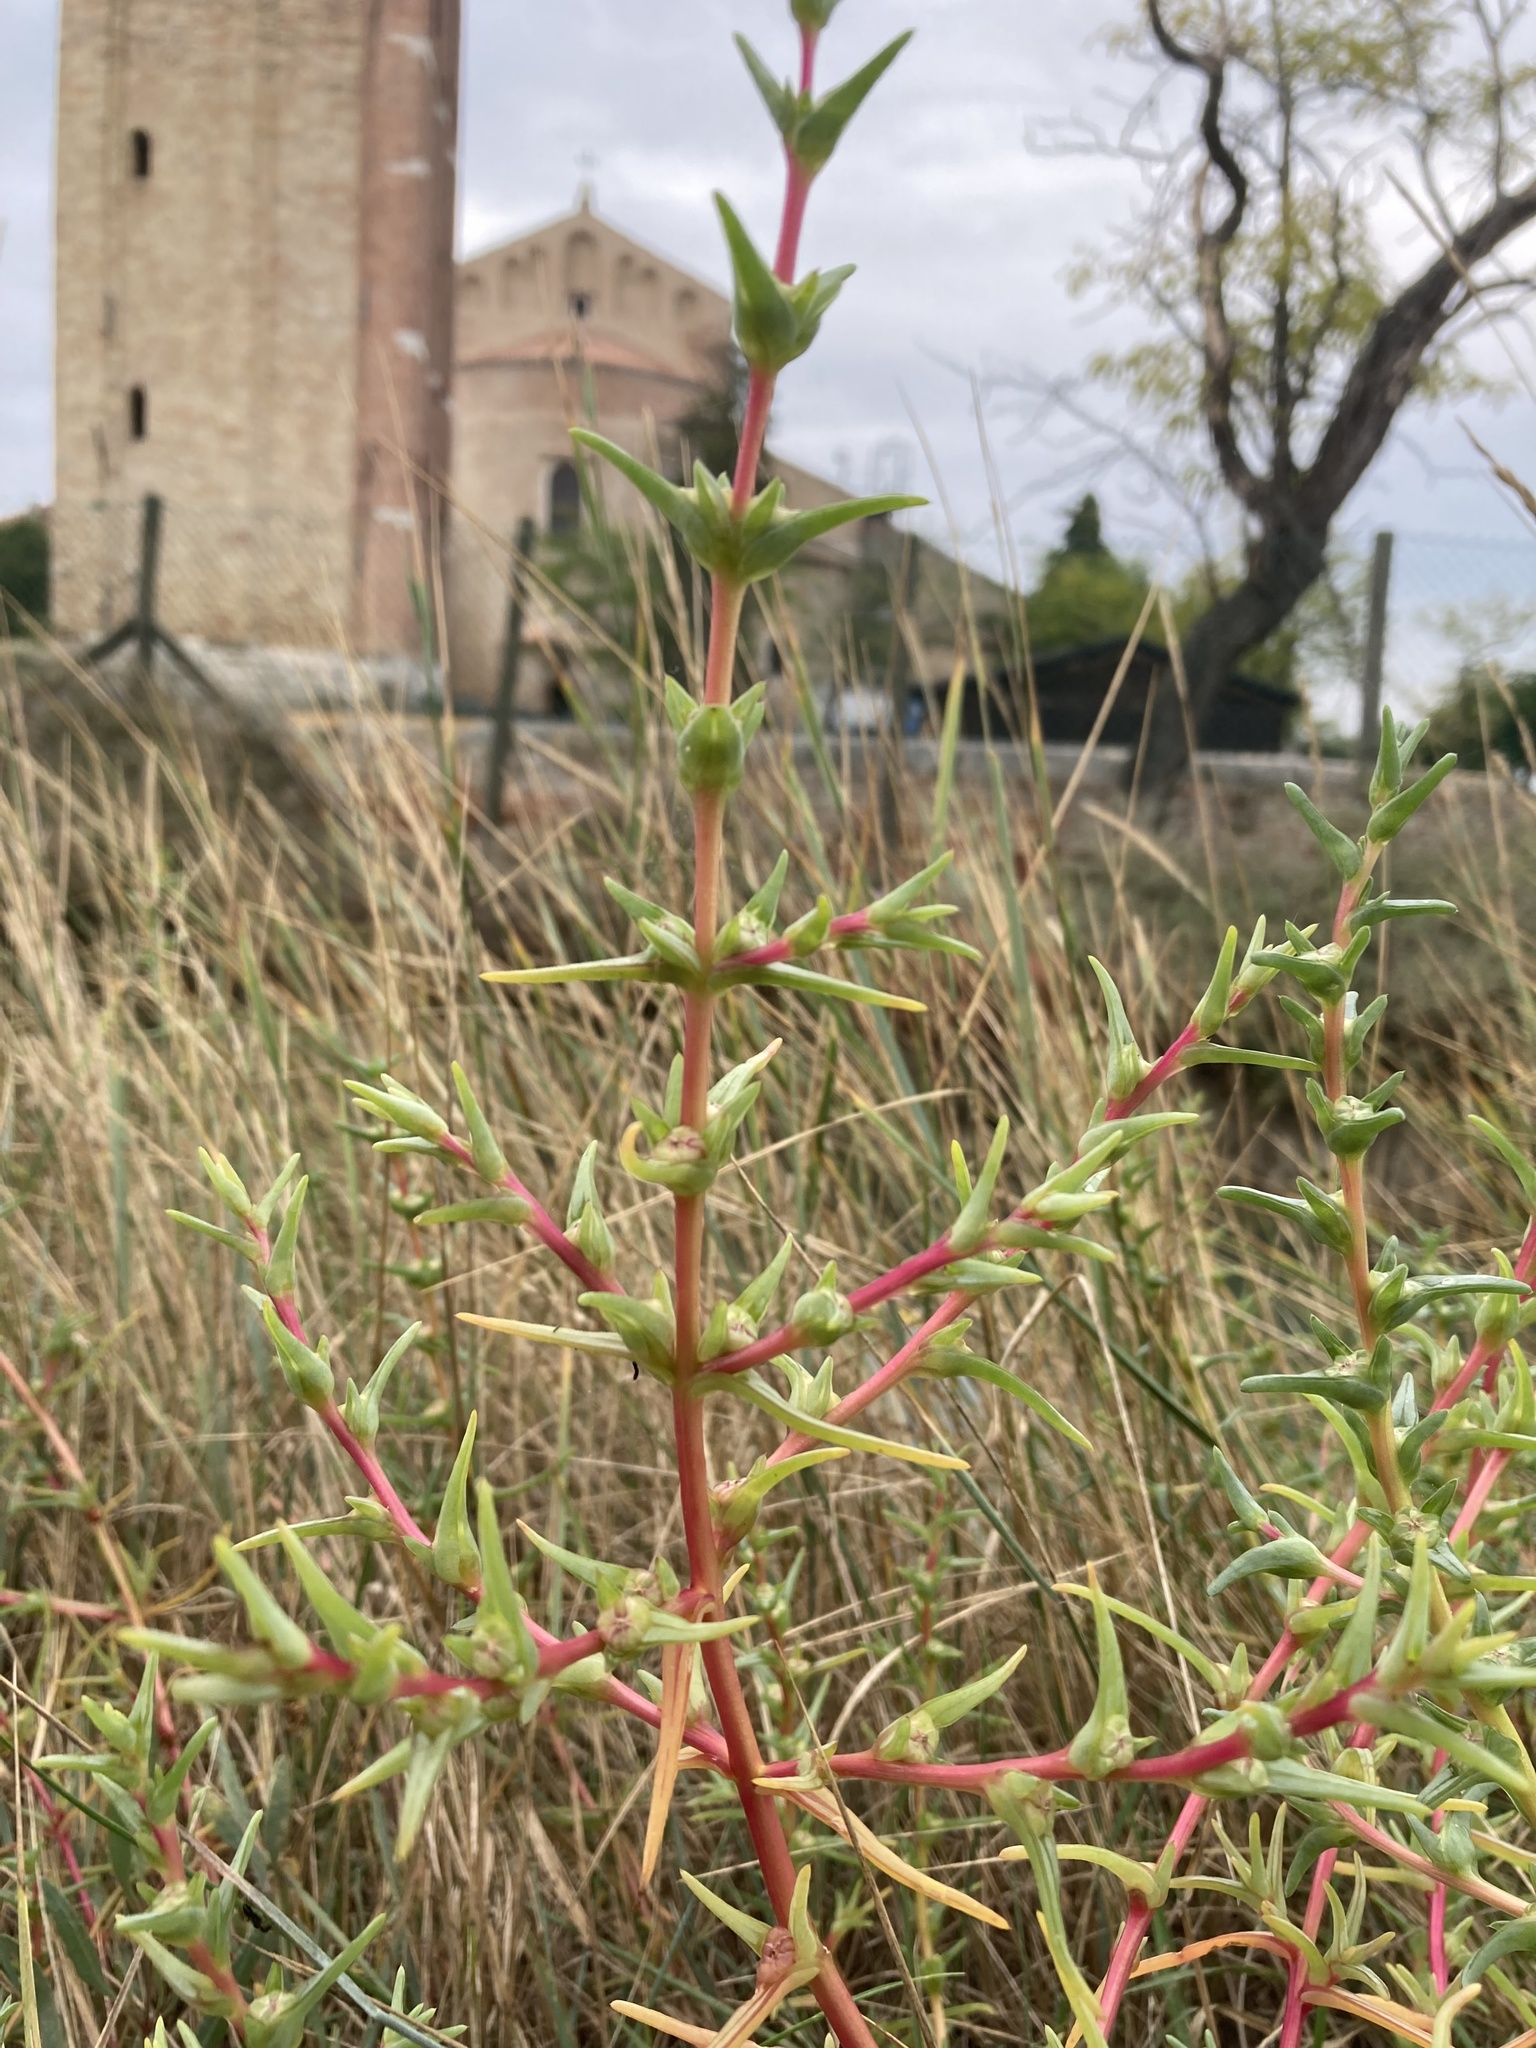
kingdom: Plantae
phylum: Tracheophyta
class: Magnoliopsida
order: Caryophyllales
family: Amaranthaceae
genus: Salsola
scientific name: Salsola soda
